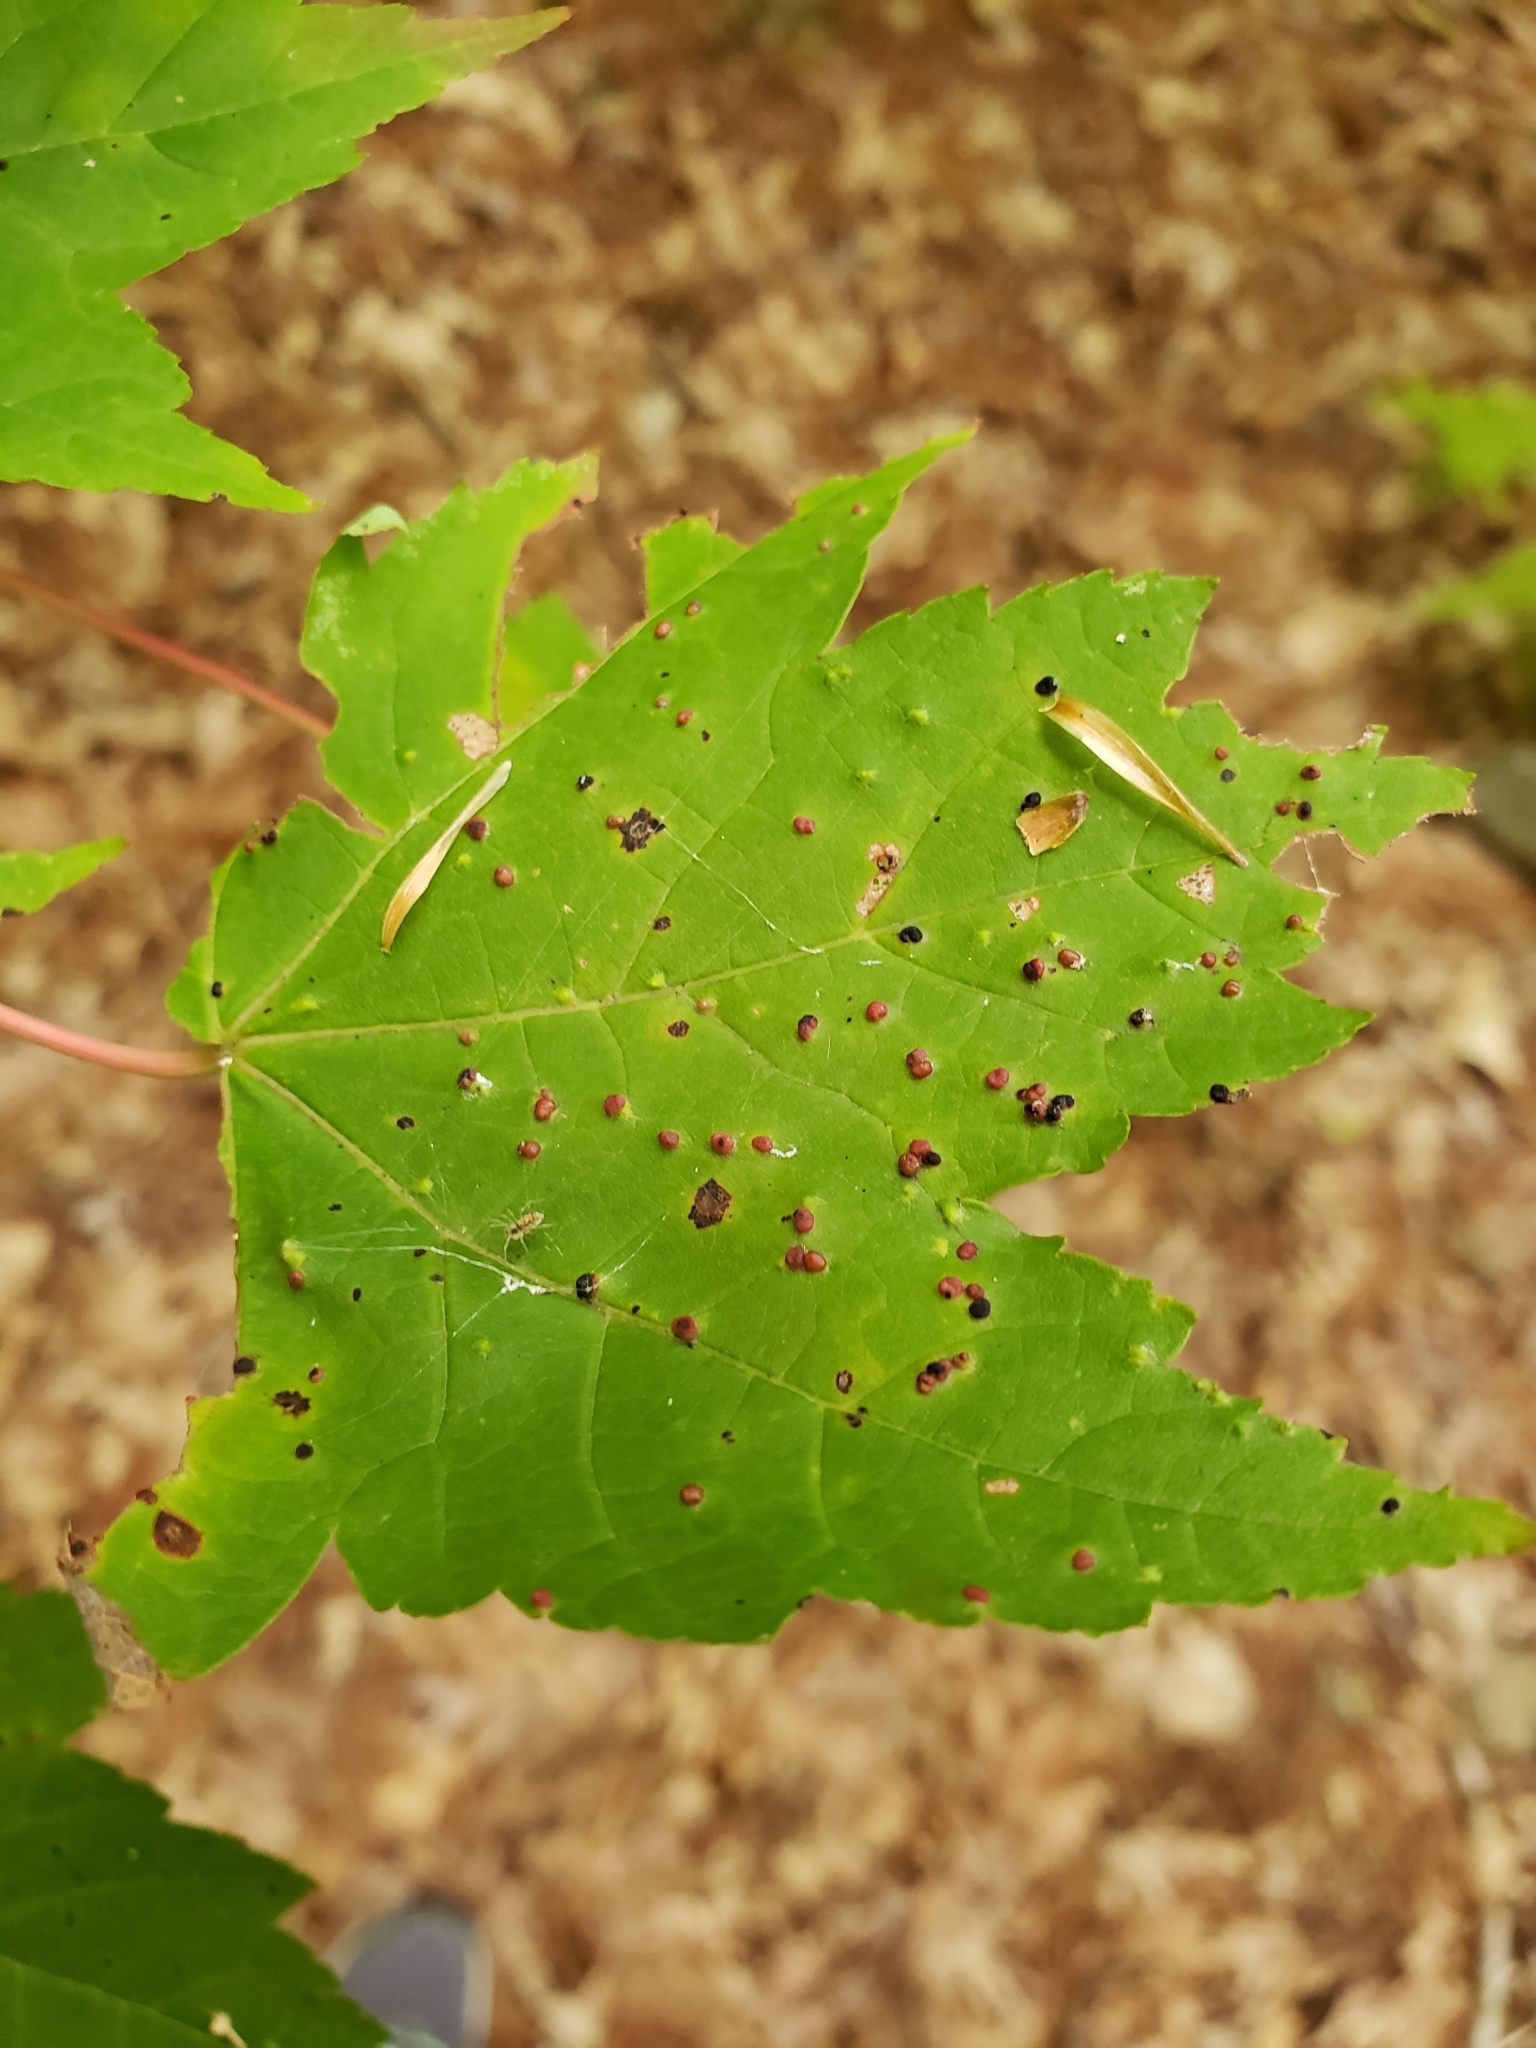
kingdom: Animalia
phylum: Arthropoda
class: Arachnida
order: Trombidiformes
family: Eriophyidae
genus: Vasates
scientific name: Vasates quadripedes
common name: Maple bladder gall mite
